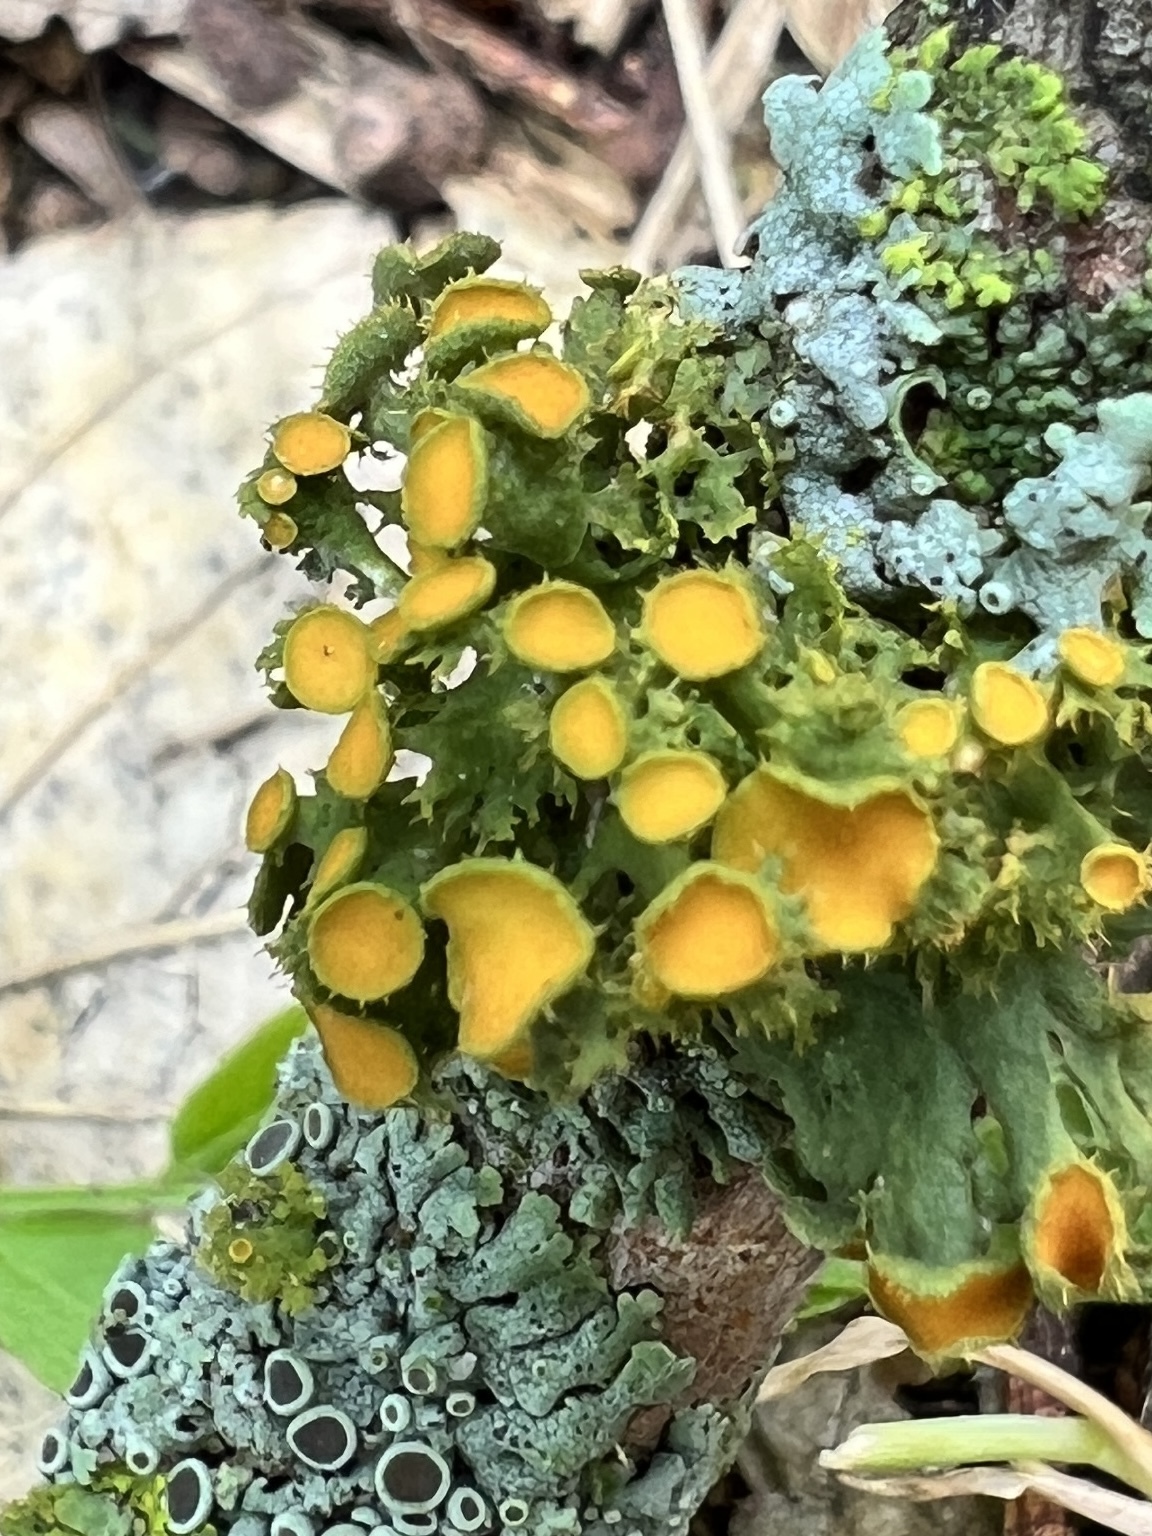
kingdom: Fungi
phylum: Ascomycota
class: Lecanoromycetes
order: Teloschistales
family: Teloschistaceae
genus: Niorma
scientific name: Niorma chrysophthalma
